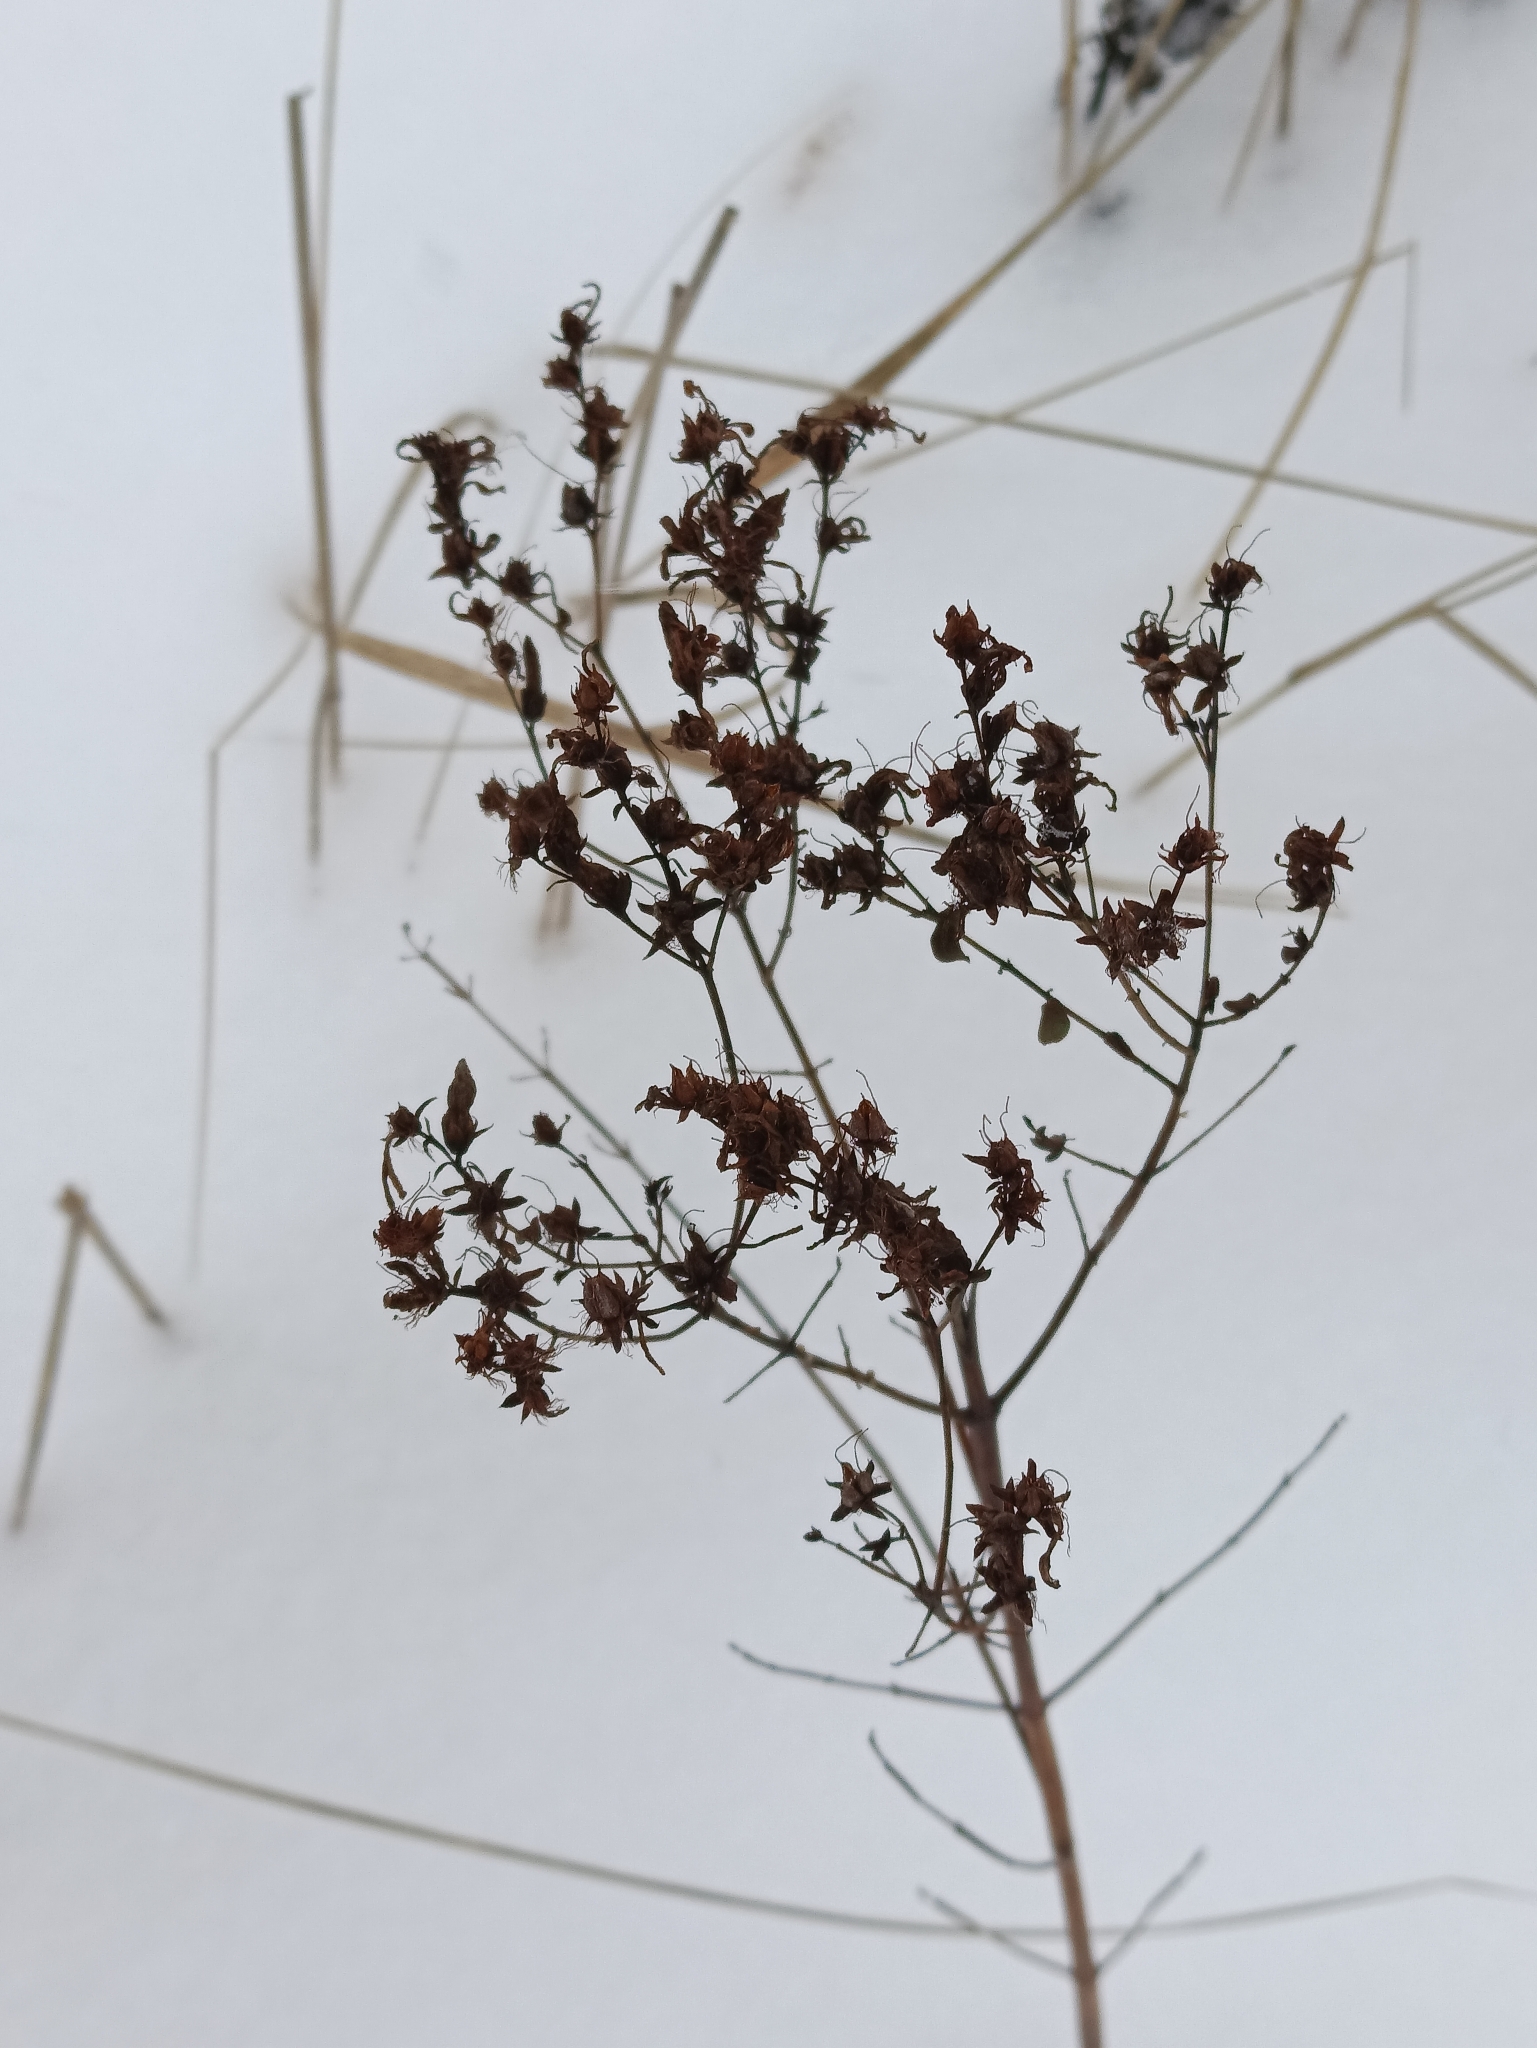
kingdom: Plantae
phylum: Tracheophyta
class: Magnoliopsida
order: Malpighiales
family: Hypericaceae
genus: Hypericum
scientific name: Hypericum perforatum
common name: Common st. johnswort
